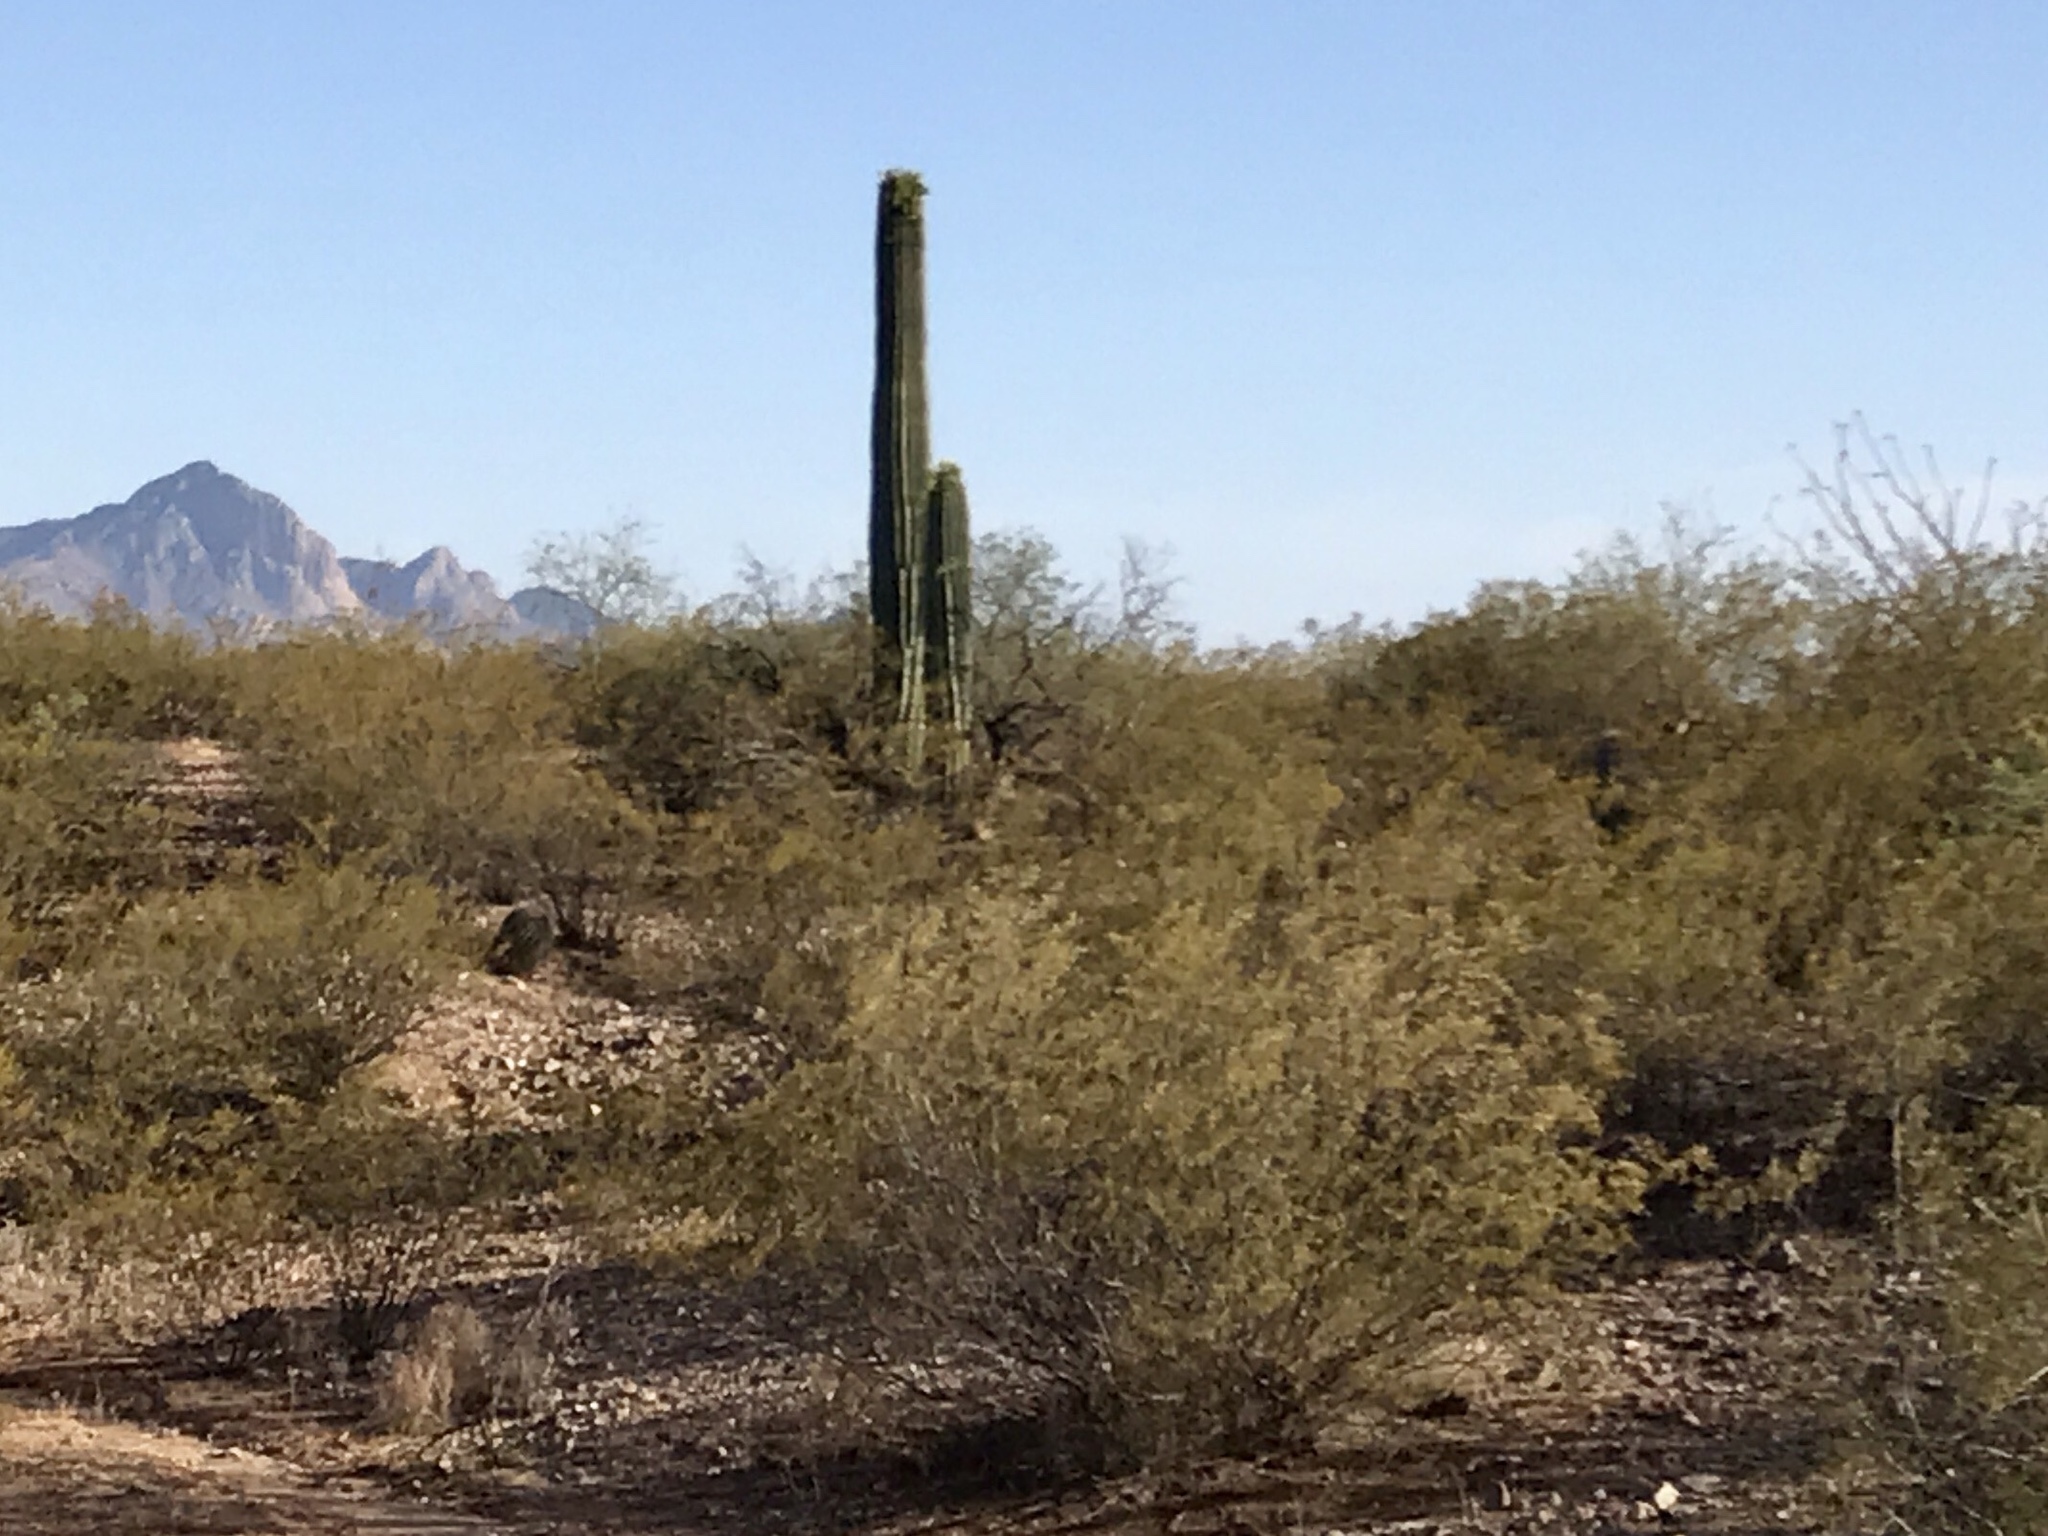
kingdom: Plantae
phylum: Tracheophyta
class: Magnoliopsida
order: Caryophyllales
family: Cactaceae
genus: Carnegiea
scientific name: Carnegiea gigantea
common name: Saguaro
